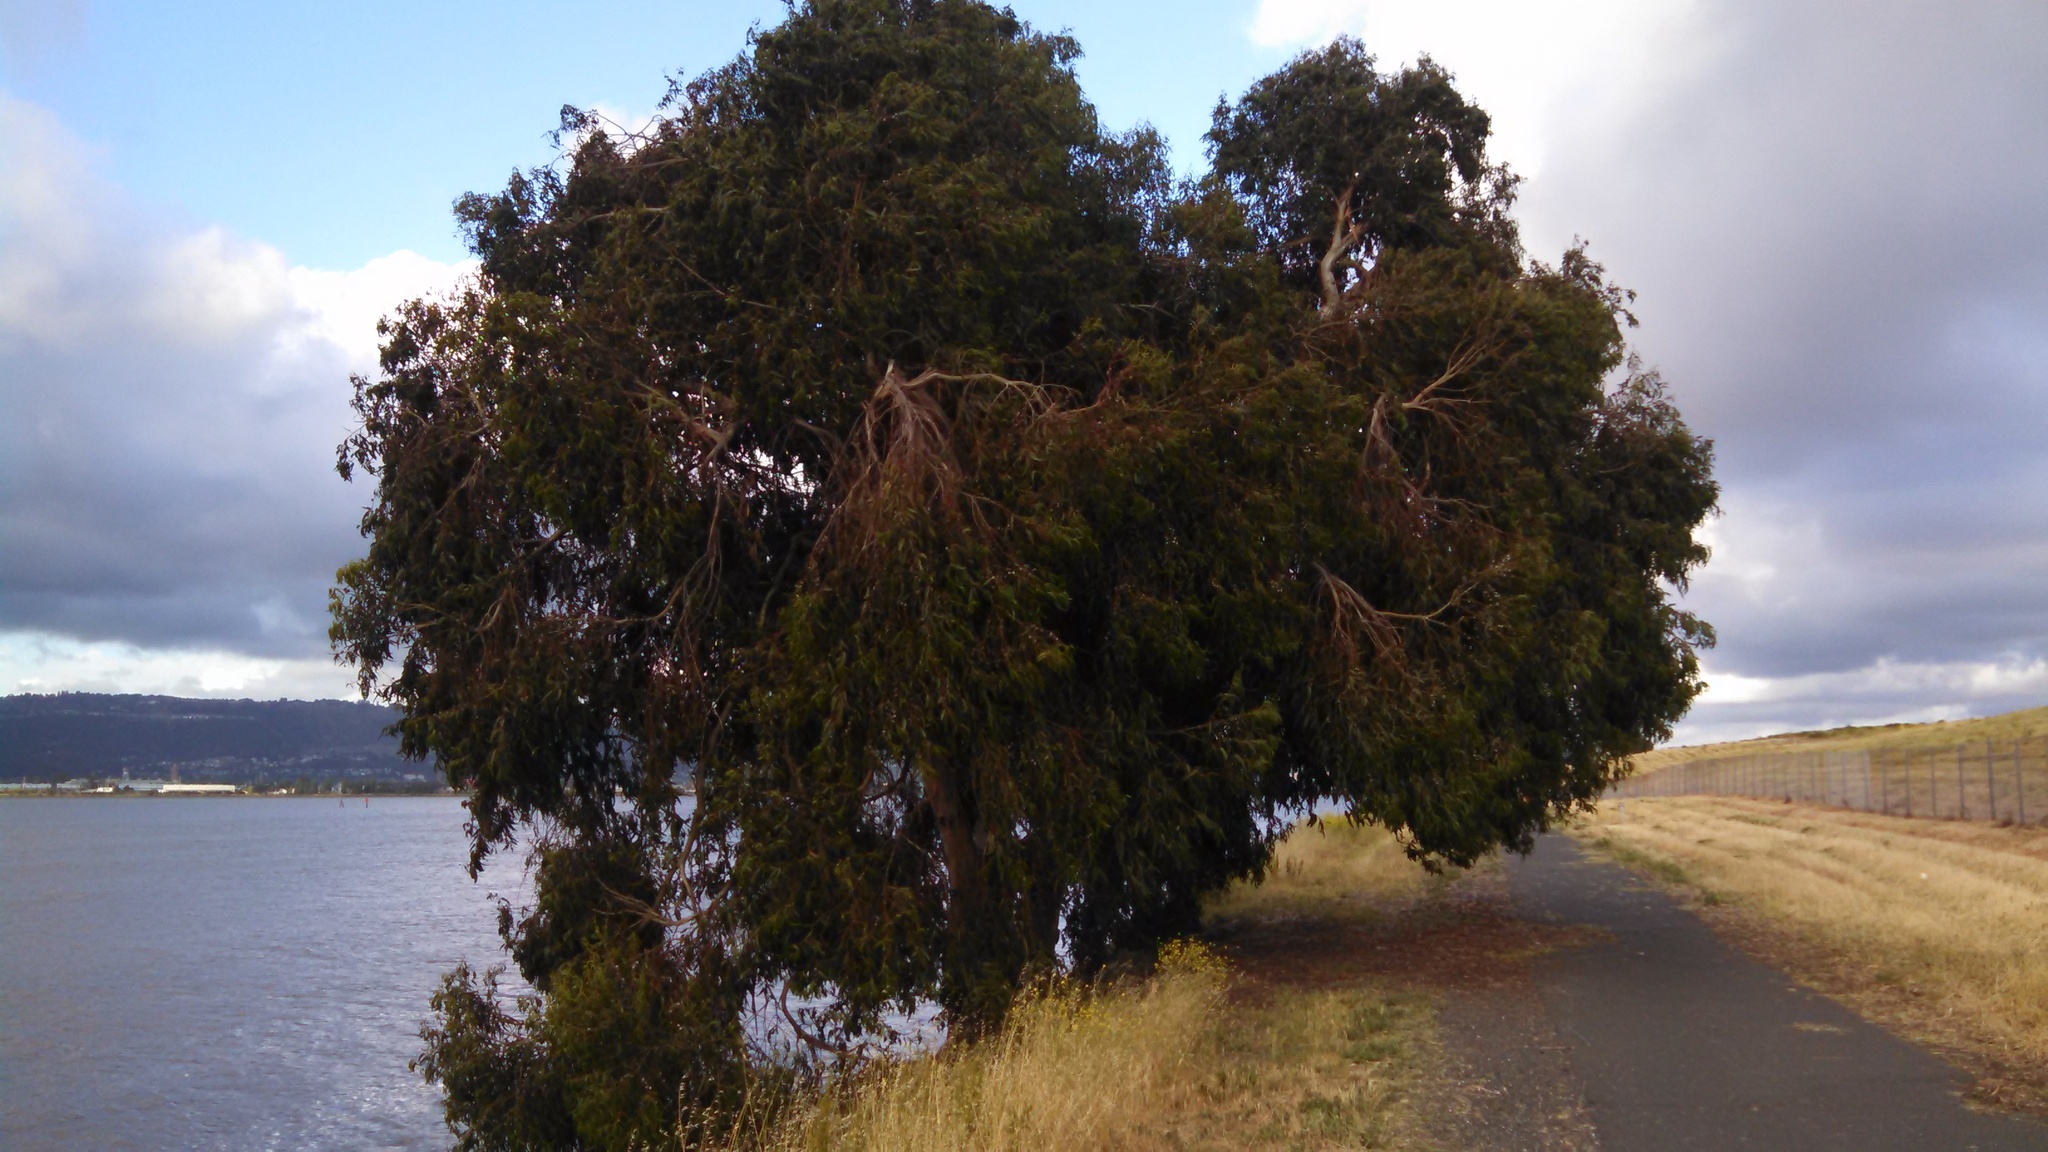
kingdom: Plantae
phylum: Tracheophyta
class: Magnoliopsida
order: Myrtales
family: Myrtaceae
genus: Eucalyptus
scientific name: Eucalyptus globulus
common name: Southern blue-gum
